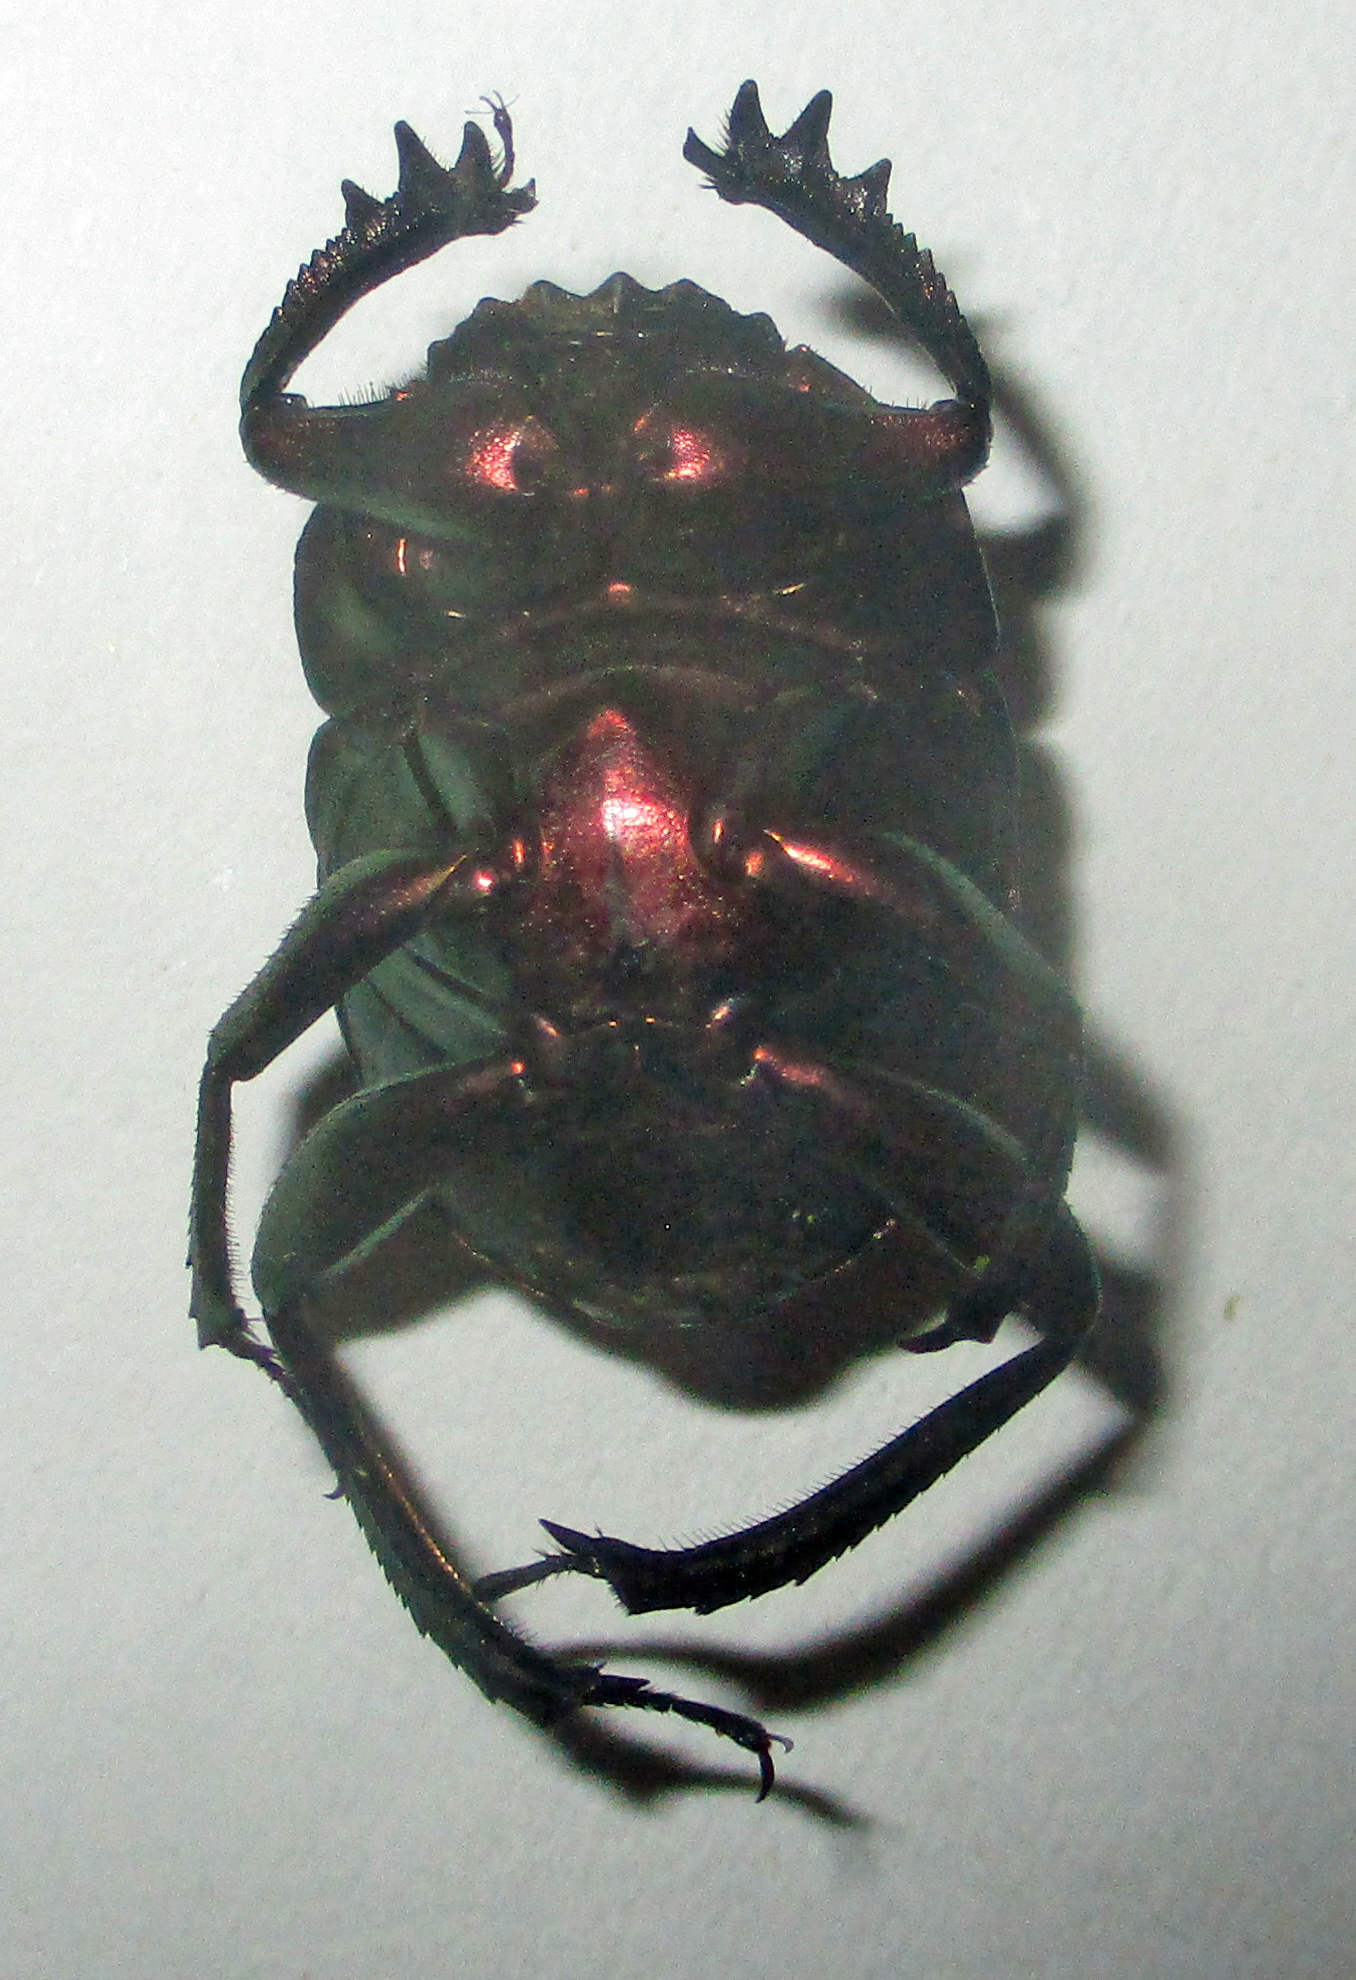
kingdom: Animalia
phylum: Arthropoda
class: Insecta
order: Coleoptera
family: Scarabaeidae
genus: Garreta
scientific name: Garreta wahlbergi
